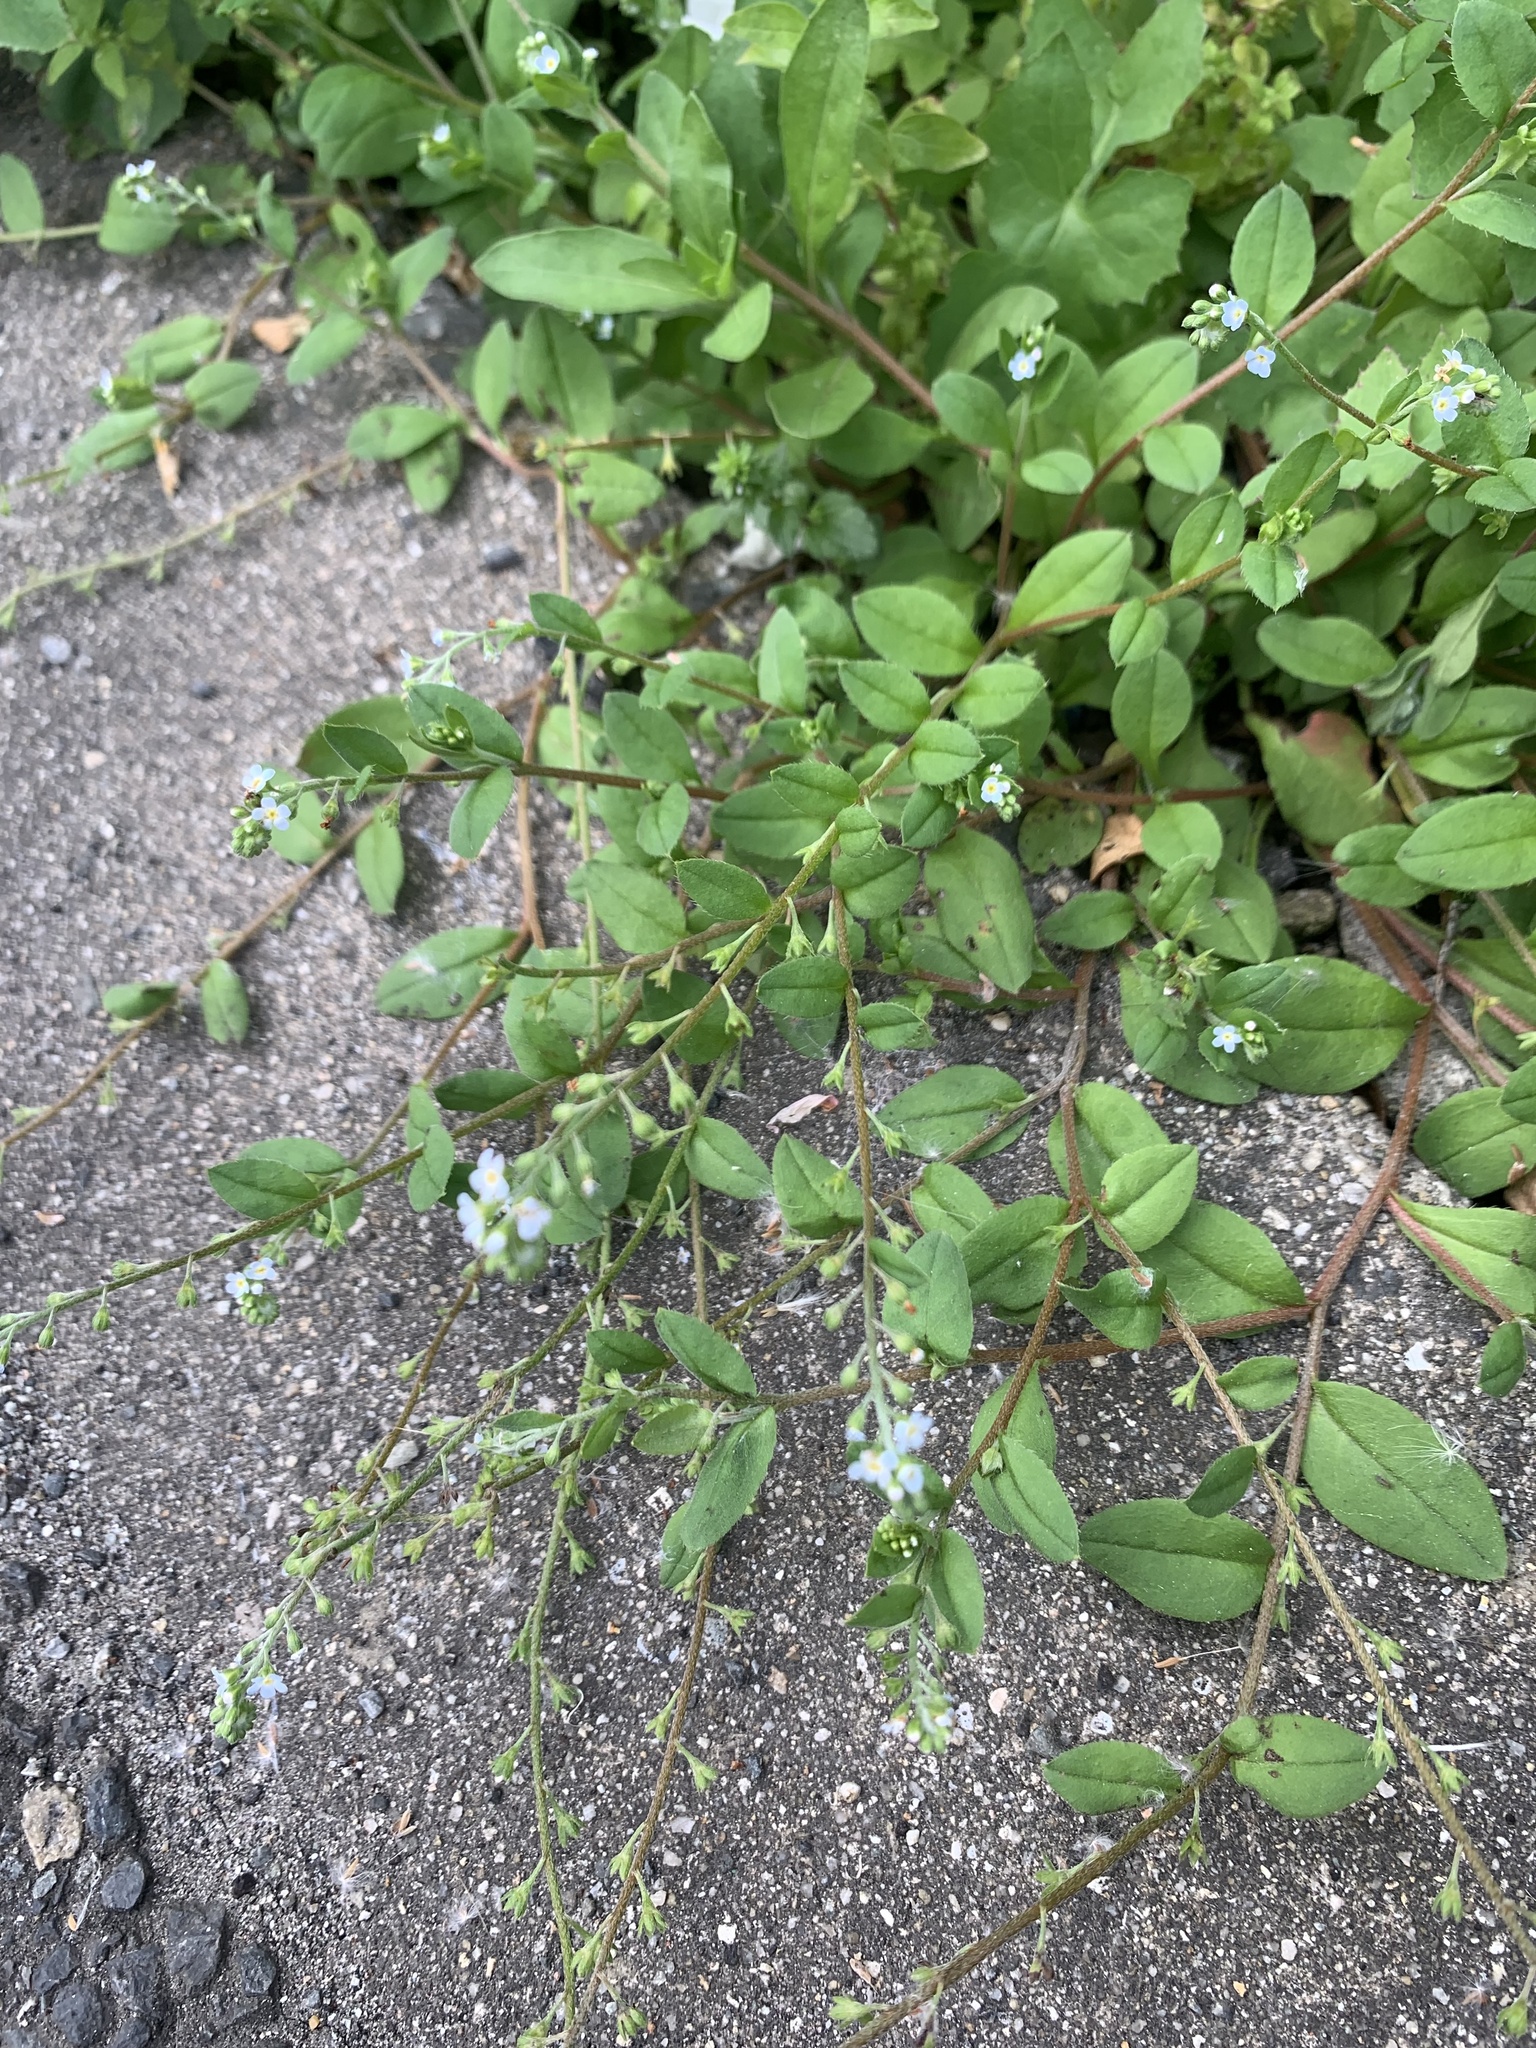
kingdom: Plantae
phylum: Tracheophyta
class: Magnoliopsida
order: Boraginales
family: Boraginaceae
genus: Trigonotis
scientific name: Trigonotis peduncularis
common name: Cucumber herb
